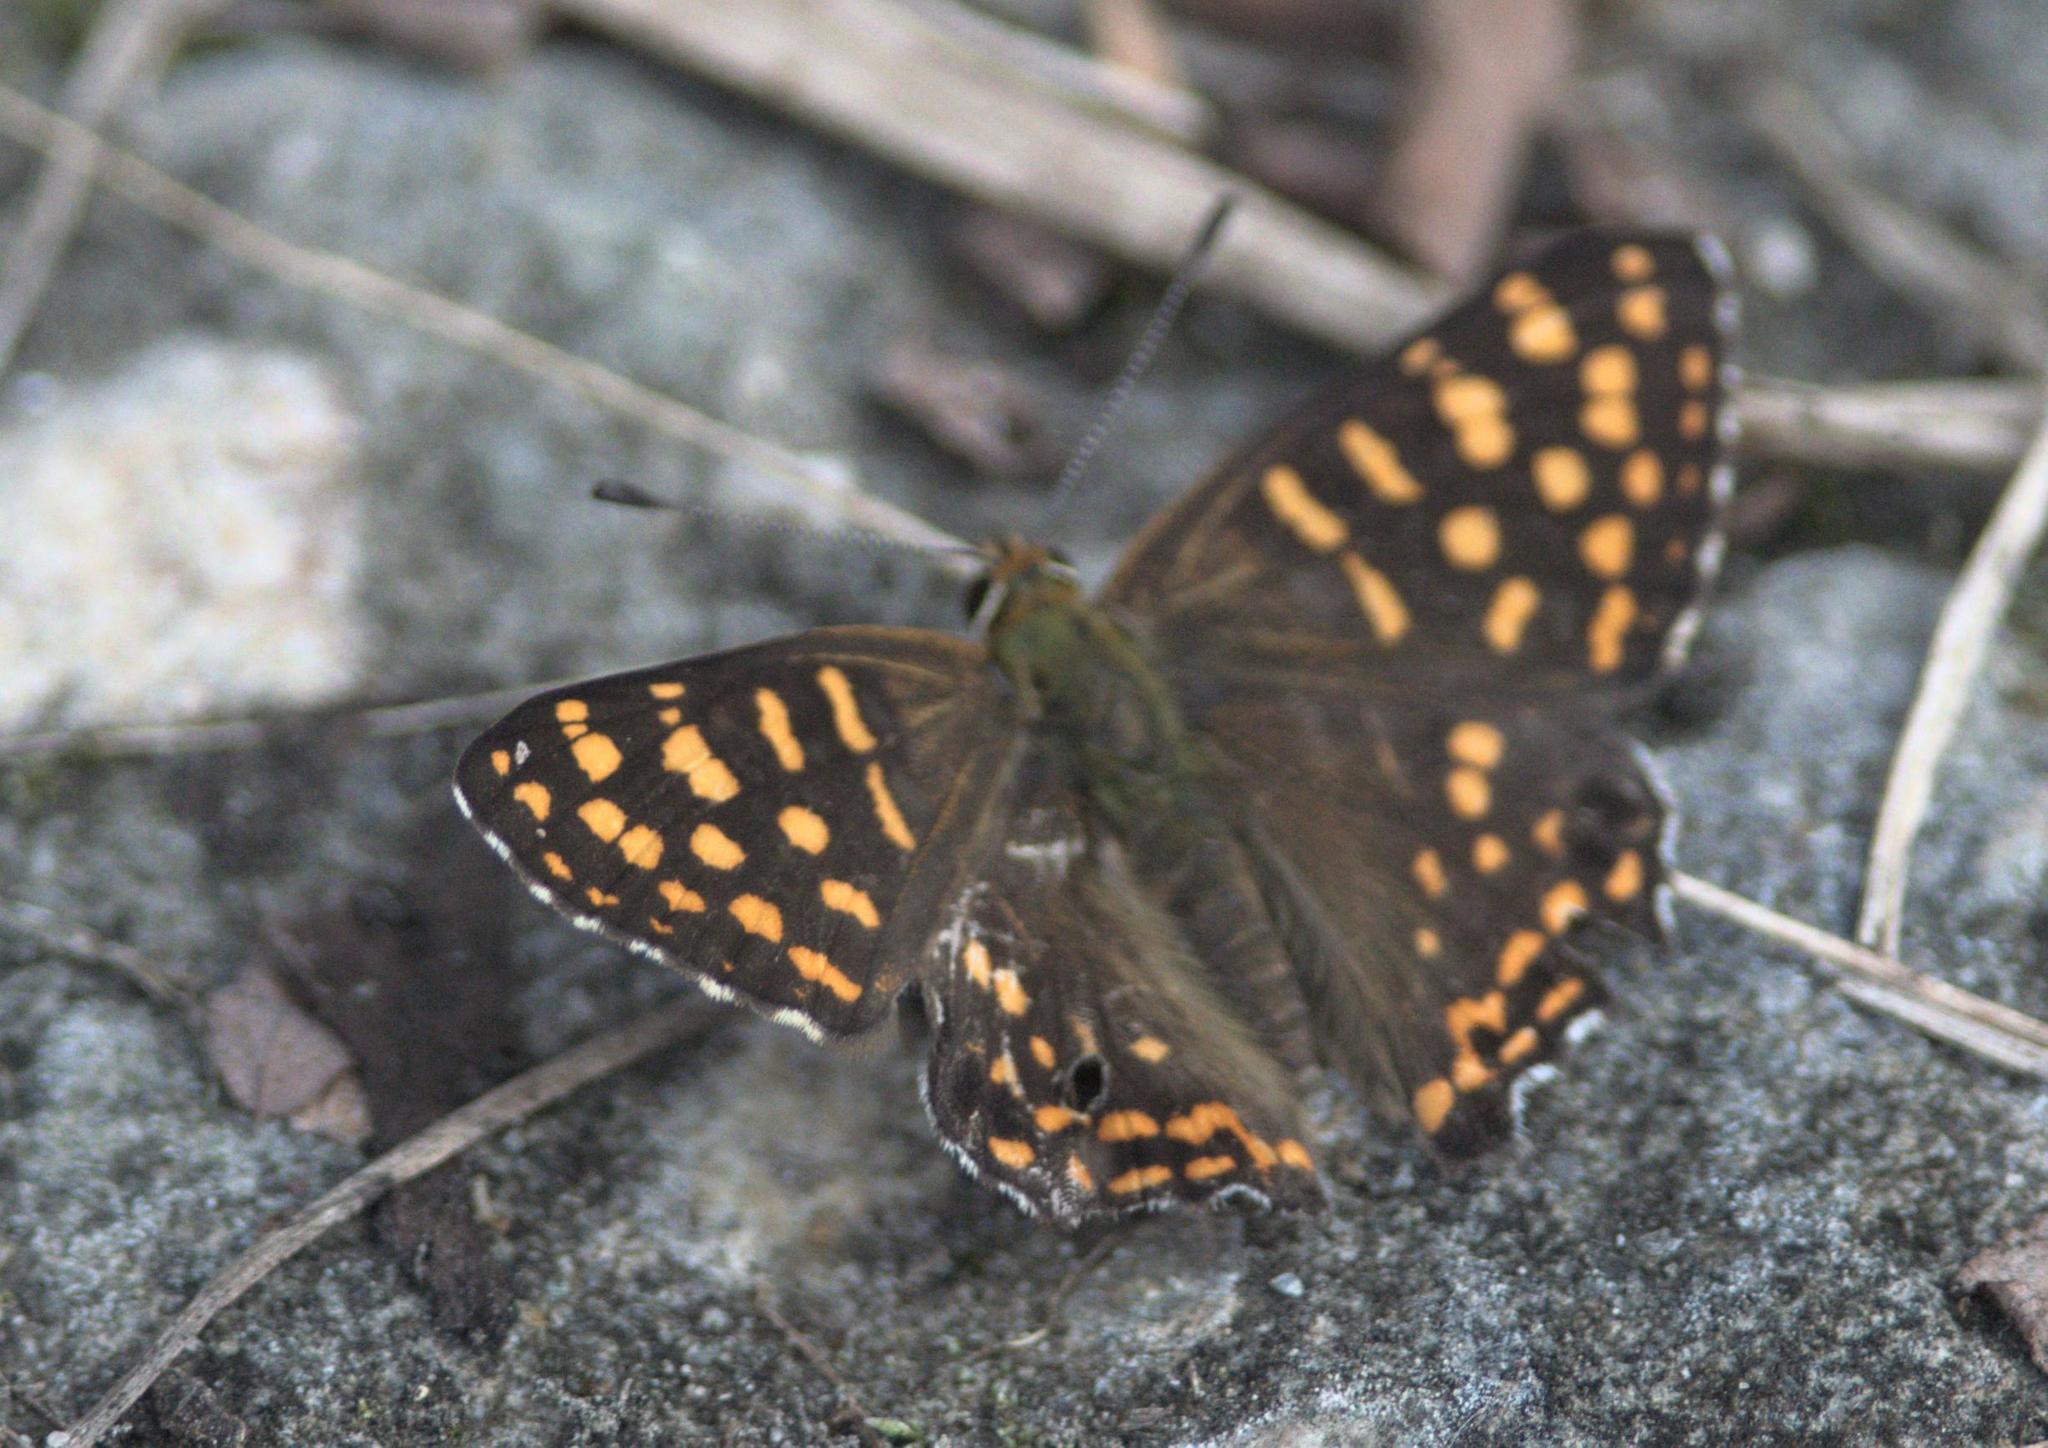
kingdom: Animalia
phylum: Arthropoda
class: Insecta
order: Lepidoptera
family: Lycaenidae
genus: Dodona
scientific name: Dodona durga
